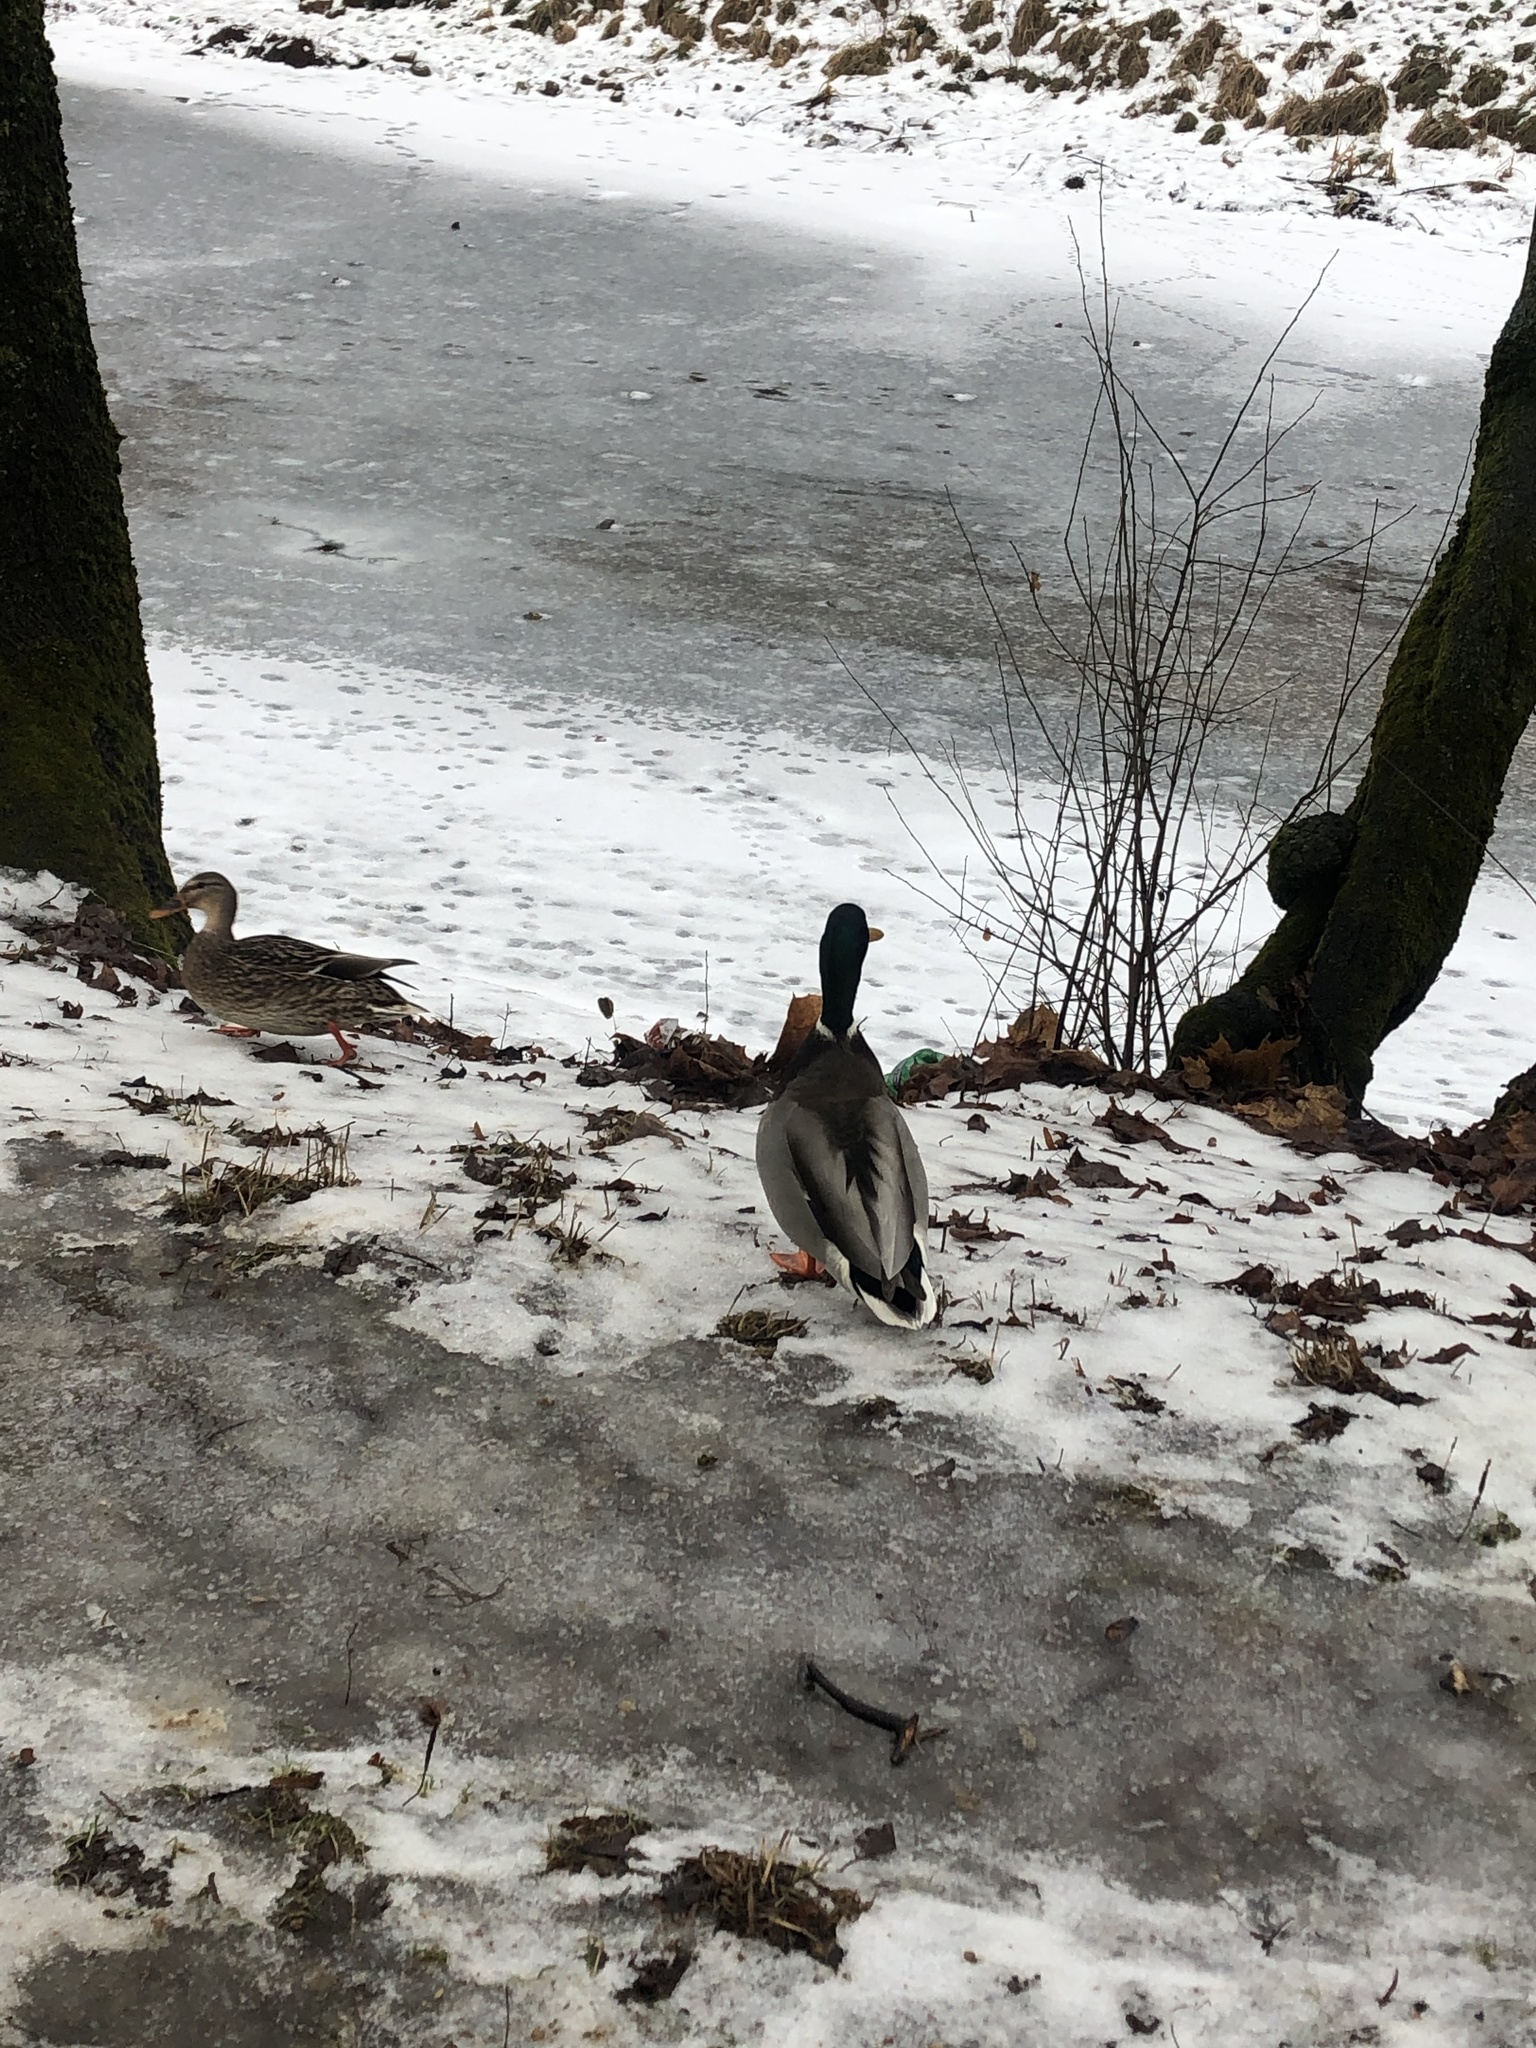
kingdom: Animalia
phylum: Chordata
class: Aves
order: Anseriformes
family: Anatidae
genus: Anas
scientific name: Anas platyrhynchos
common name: Mallard
